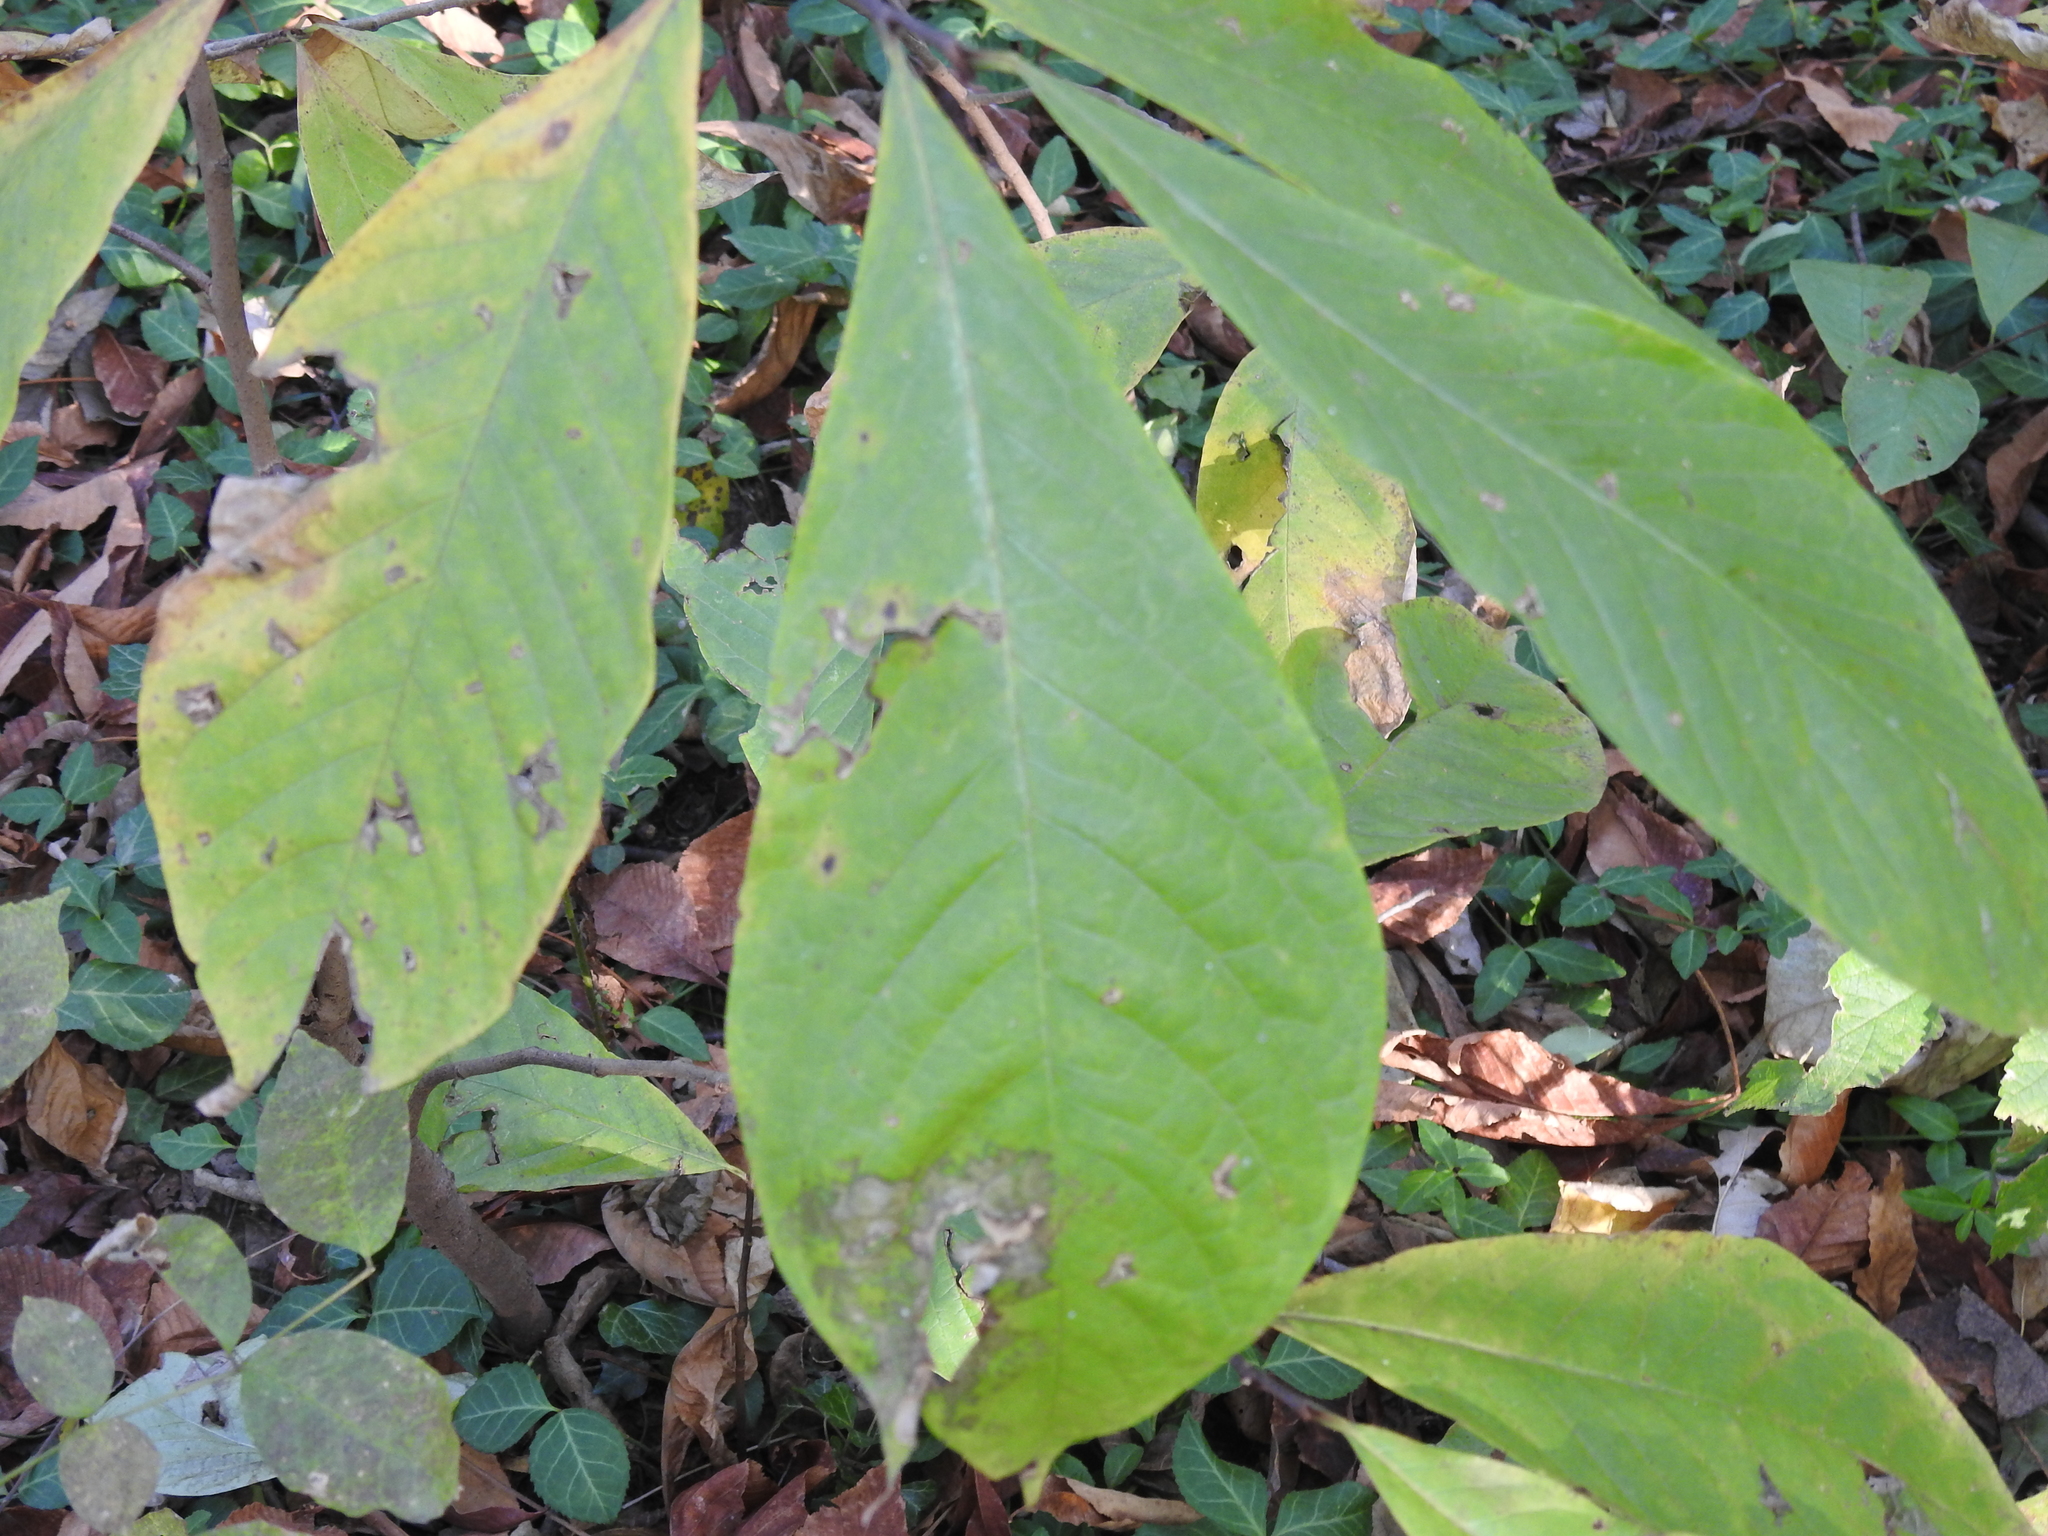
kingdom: Plantae
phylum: Tracheophyta
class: Magnoliopsida
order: Magnoliales
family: Annonaceae
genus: Asimina
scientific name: Asimina triloba
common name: Dog-banana
